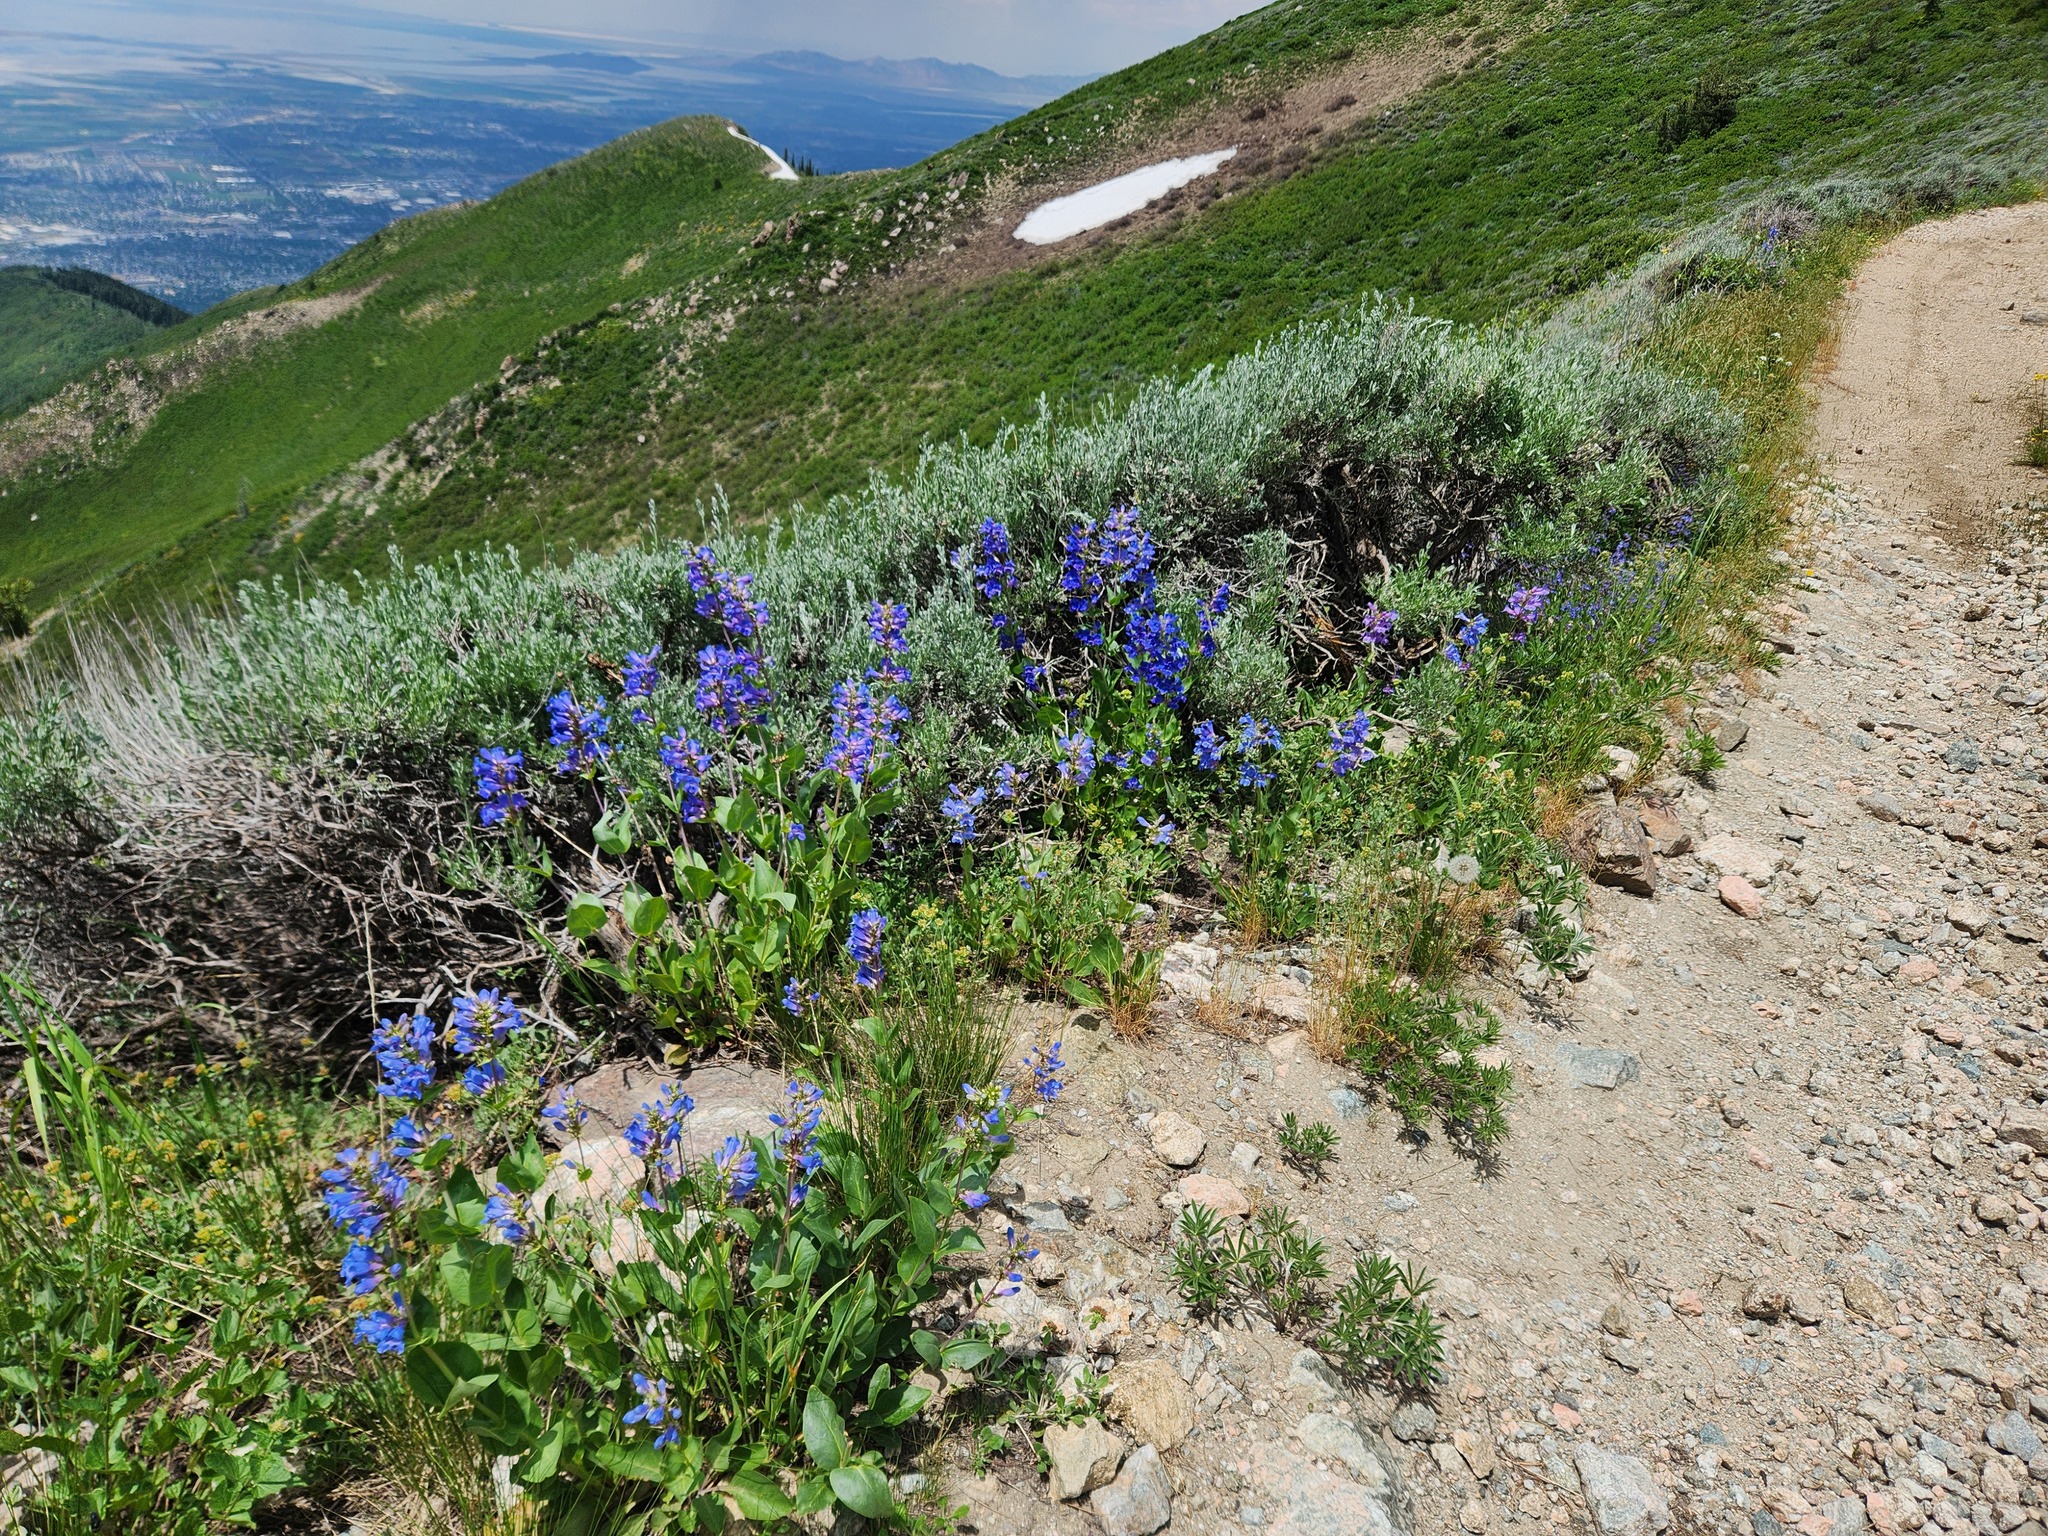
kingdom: Plantae
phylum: Tracheophyta
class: Magnoliopsida
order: Lamiales
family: Plantaginaceae
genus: Penstemon
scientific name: Penstemon cyananthus
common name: Wasatch penstemon
